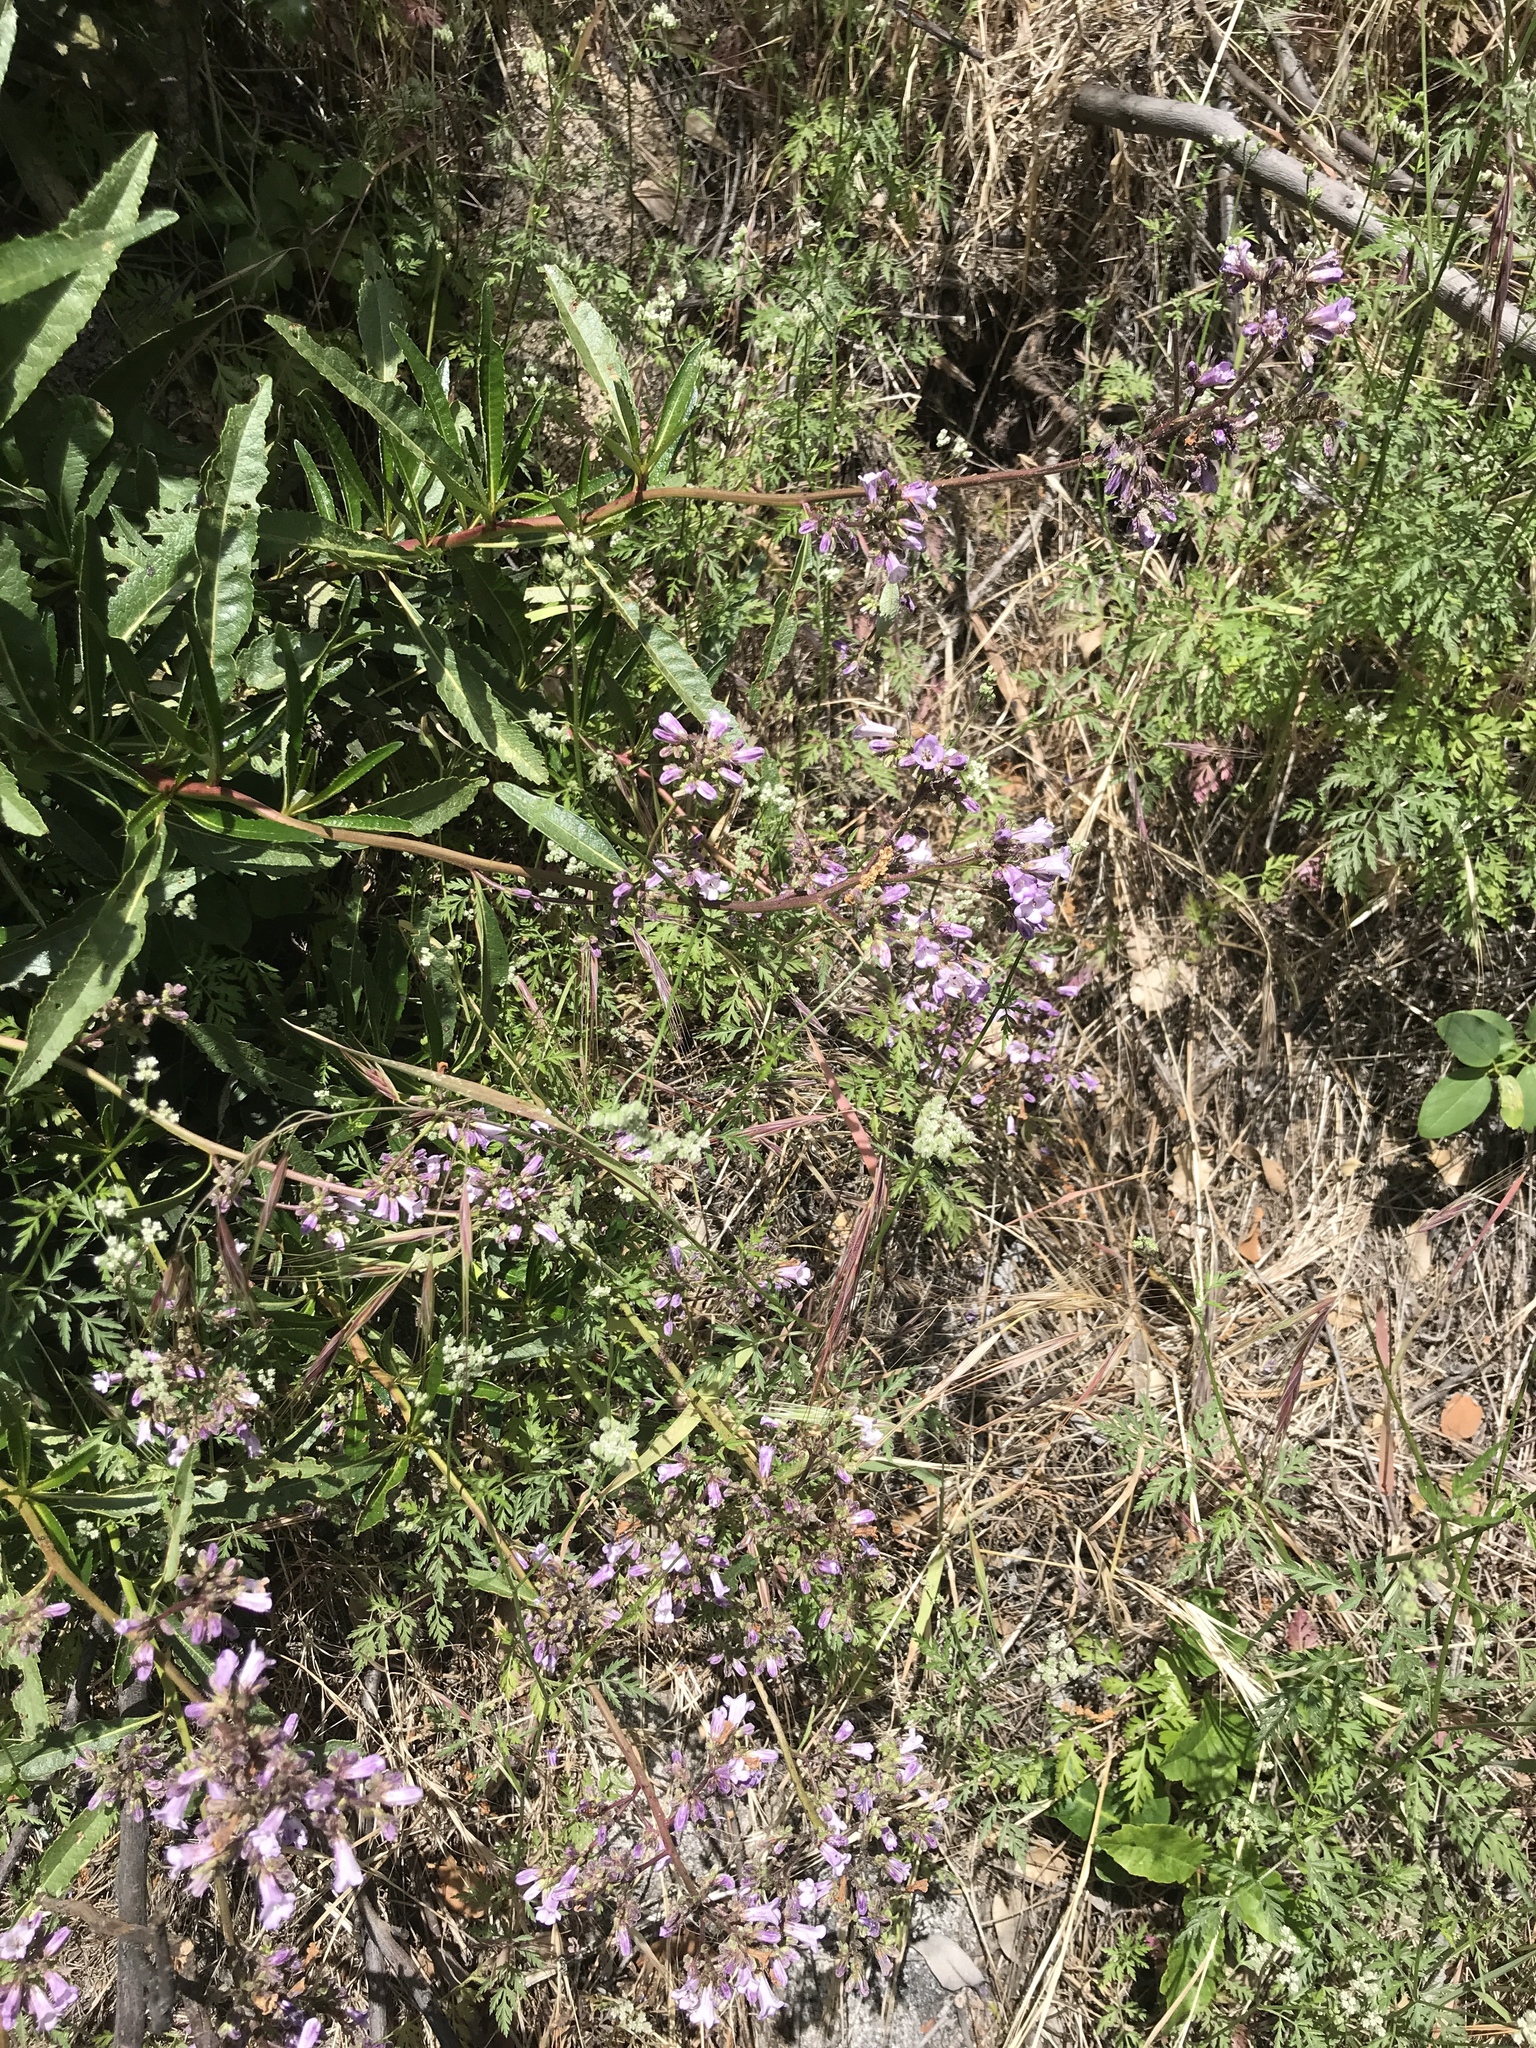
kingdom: Plantae
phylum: Tracheophyta
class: Magnoliopsida
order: Boraginales
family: Namaceae
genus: Eriodictyon
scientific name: Eriodictyon californicum
